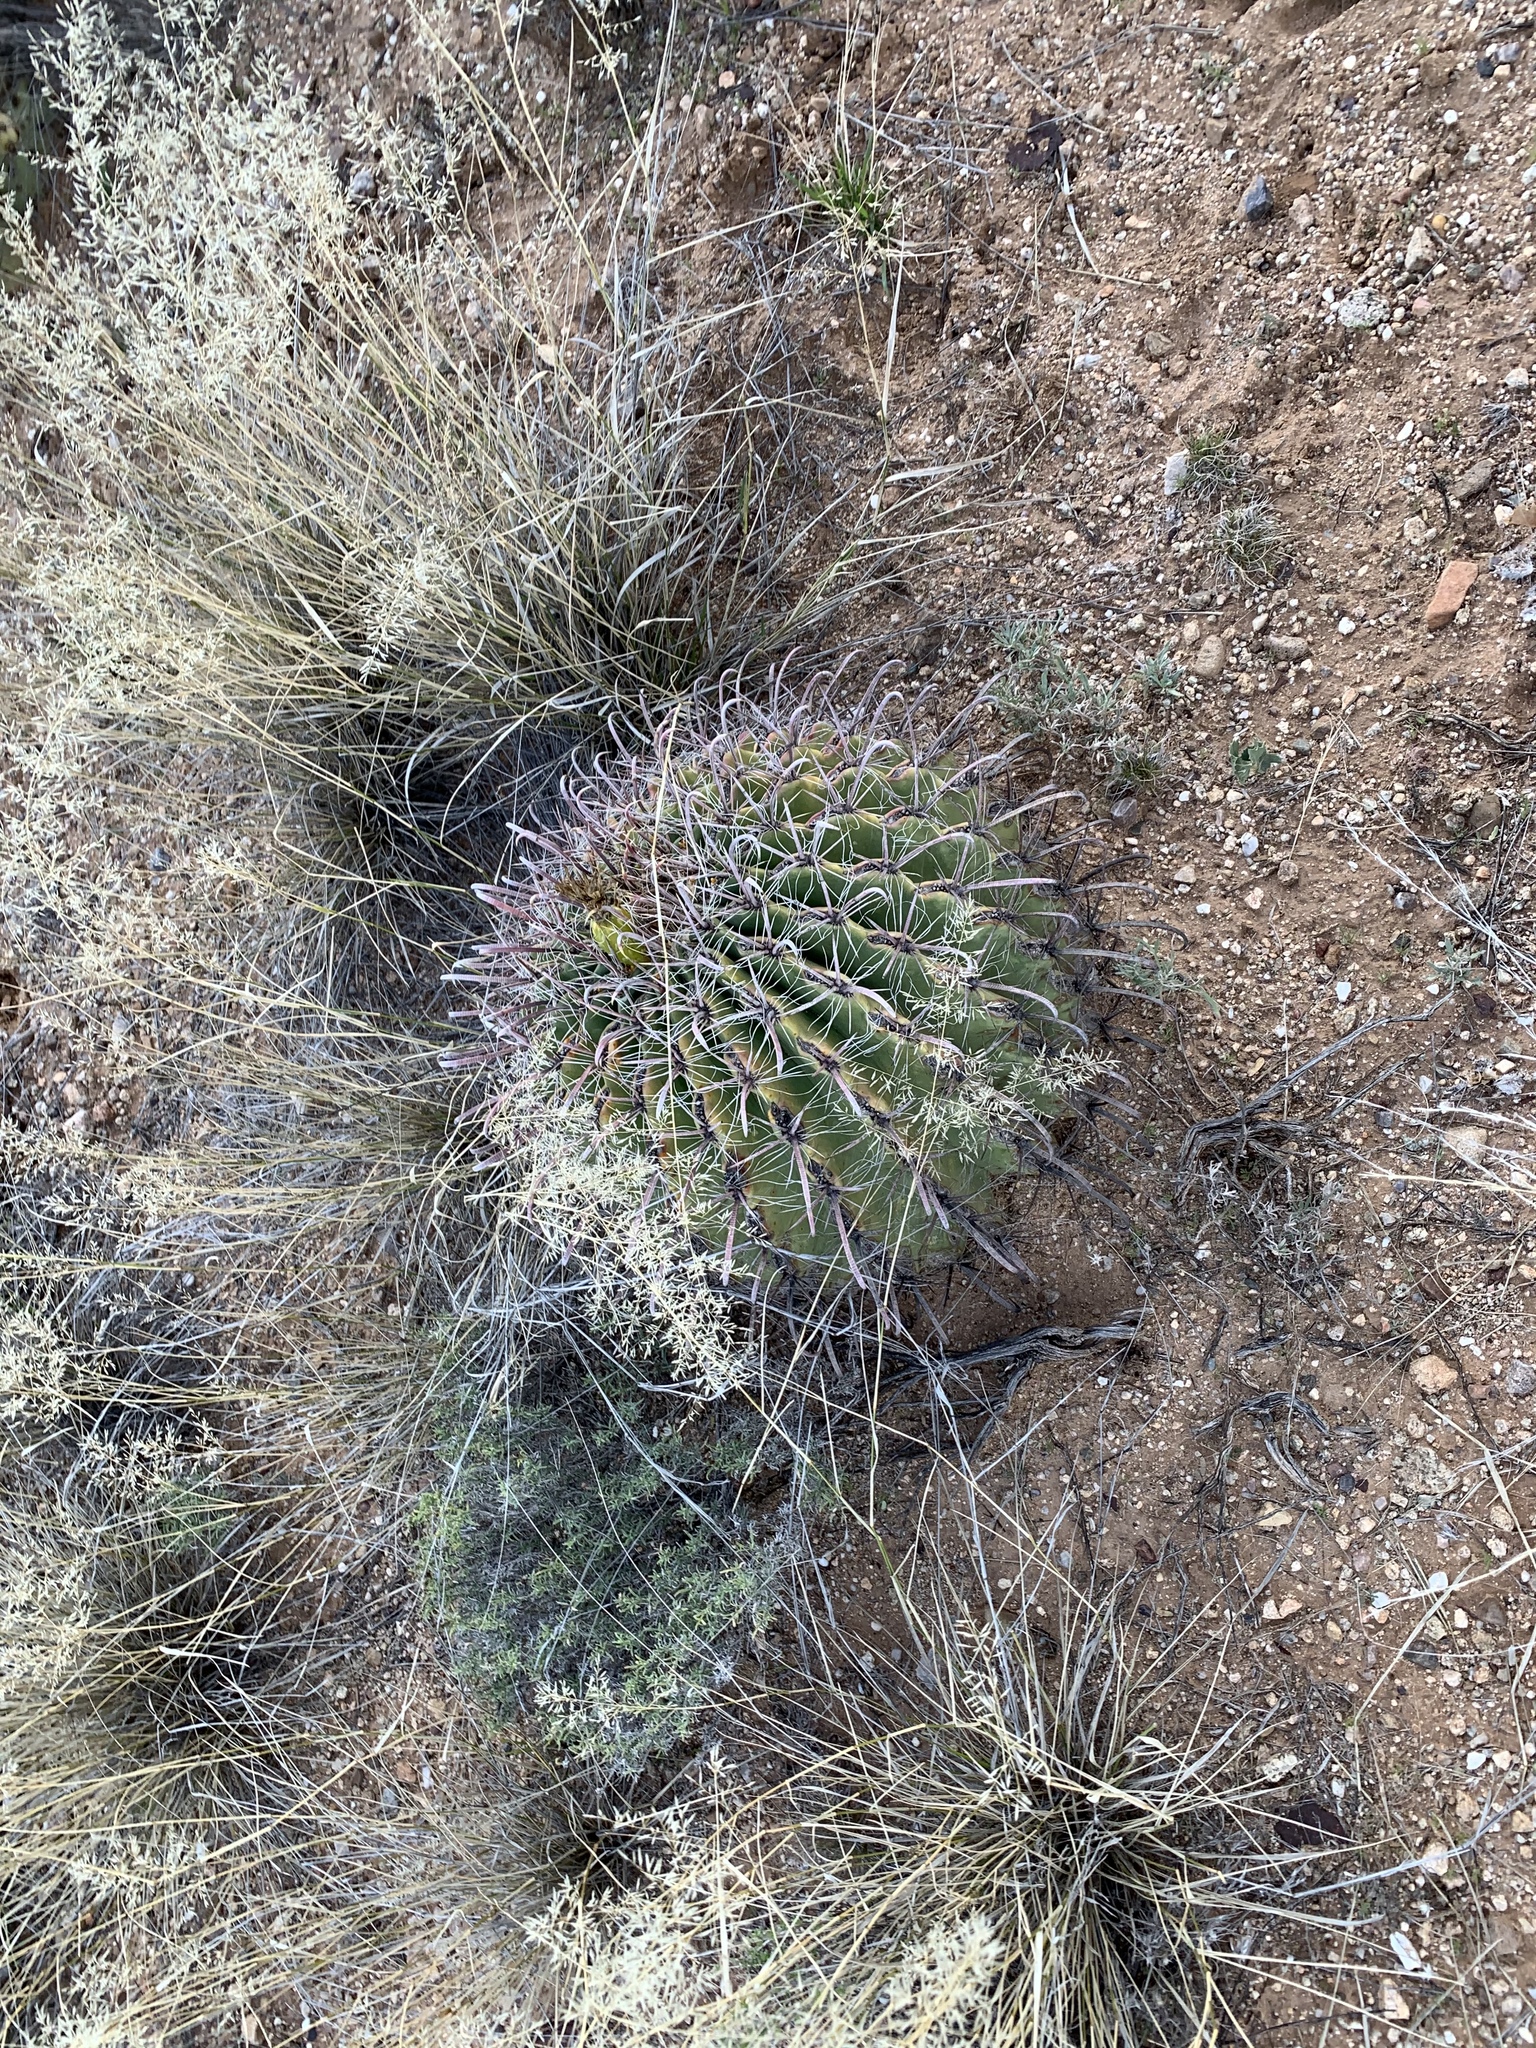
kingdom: Plantae
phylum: Tracheophyta
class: Magnoliopsida
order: Caryophyllales
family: Cactaceae
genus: Ferocactus
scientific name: Ferocactus wislizeni
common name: Candy barrel cactus
